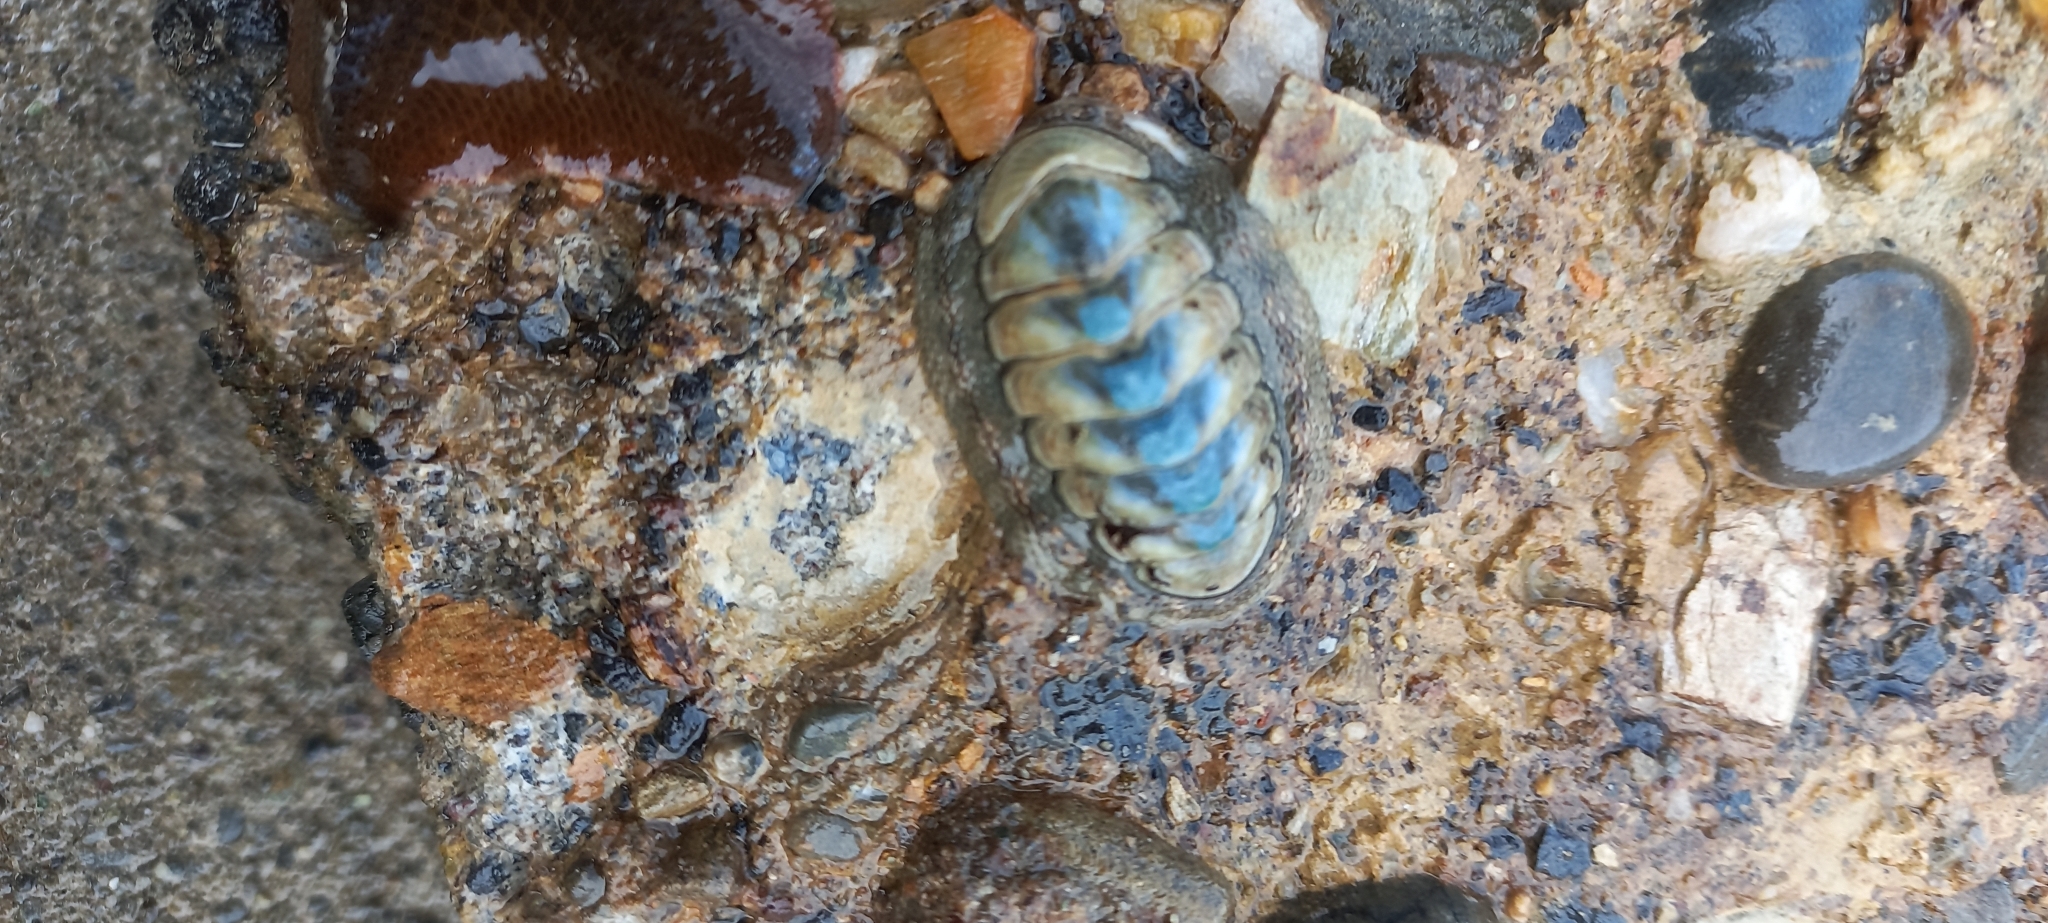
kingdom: Animalia
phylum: Mollusca
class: Polyplacophora
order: Chitonida
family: Chitonidae
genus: Sypharochiton
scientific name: Sypharochiton pelliserpentis
